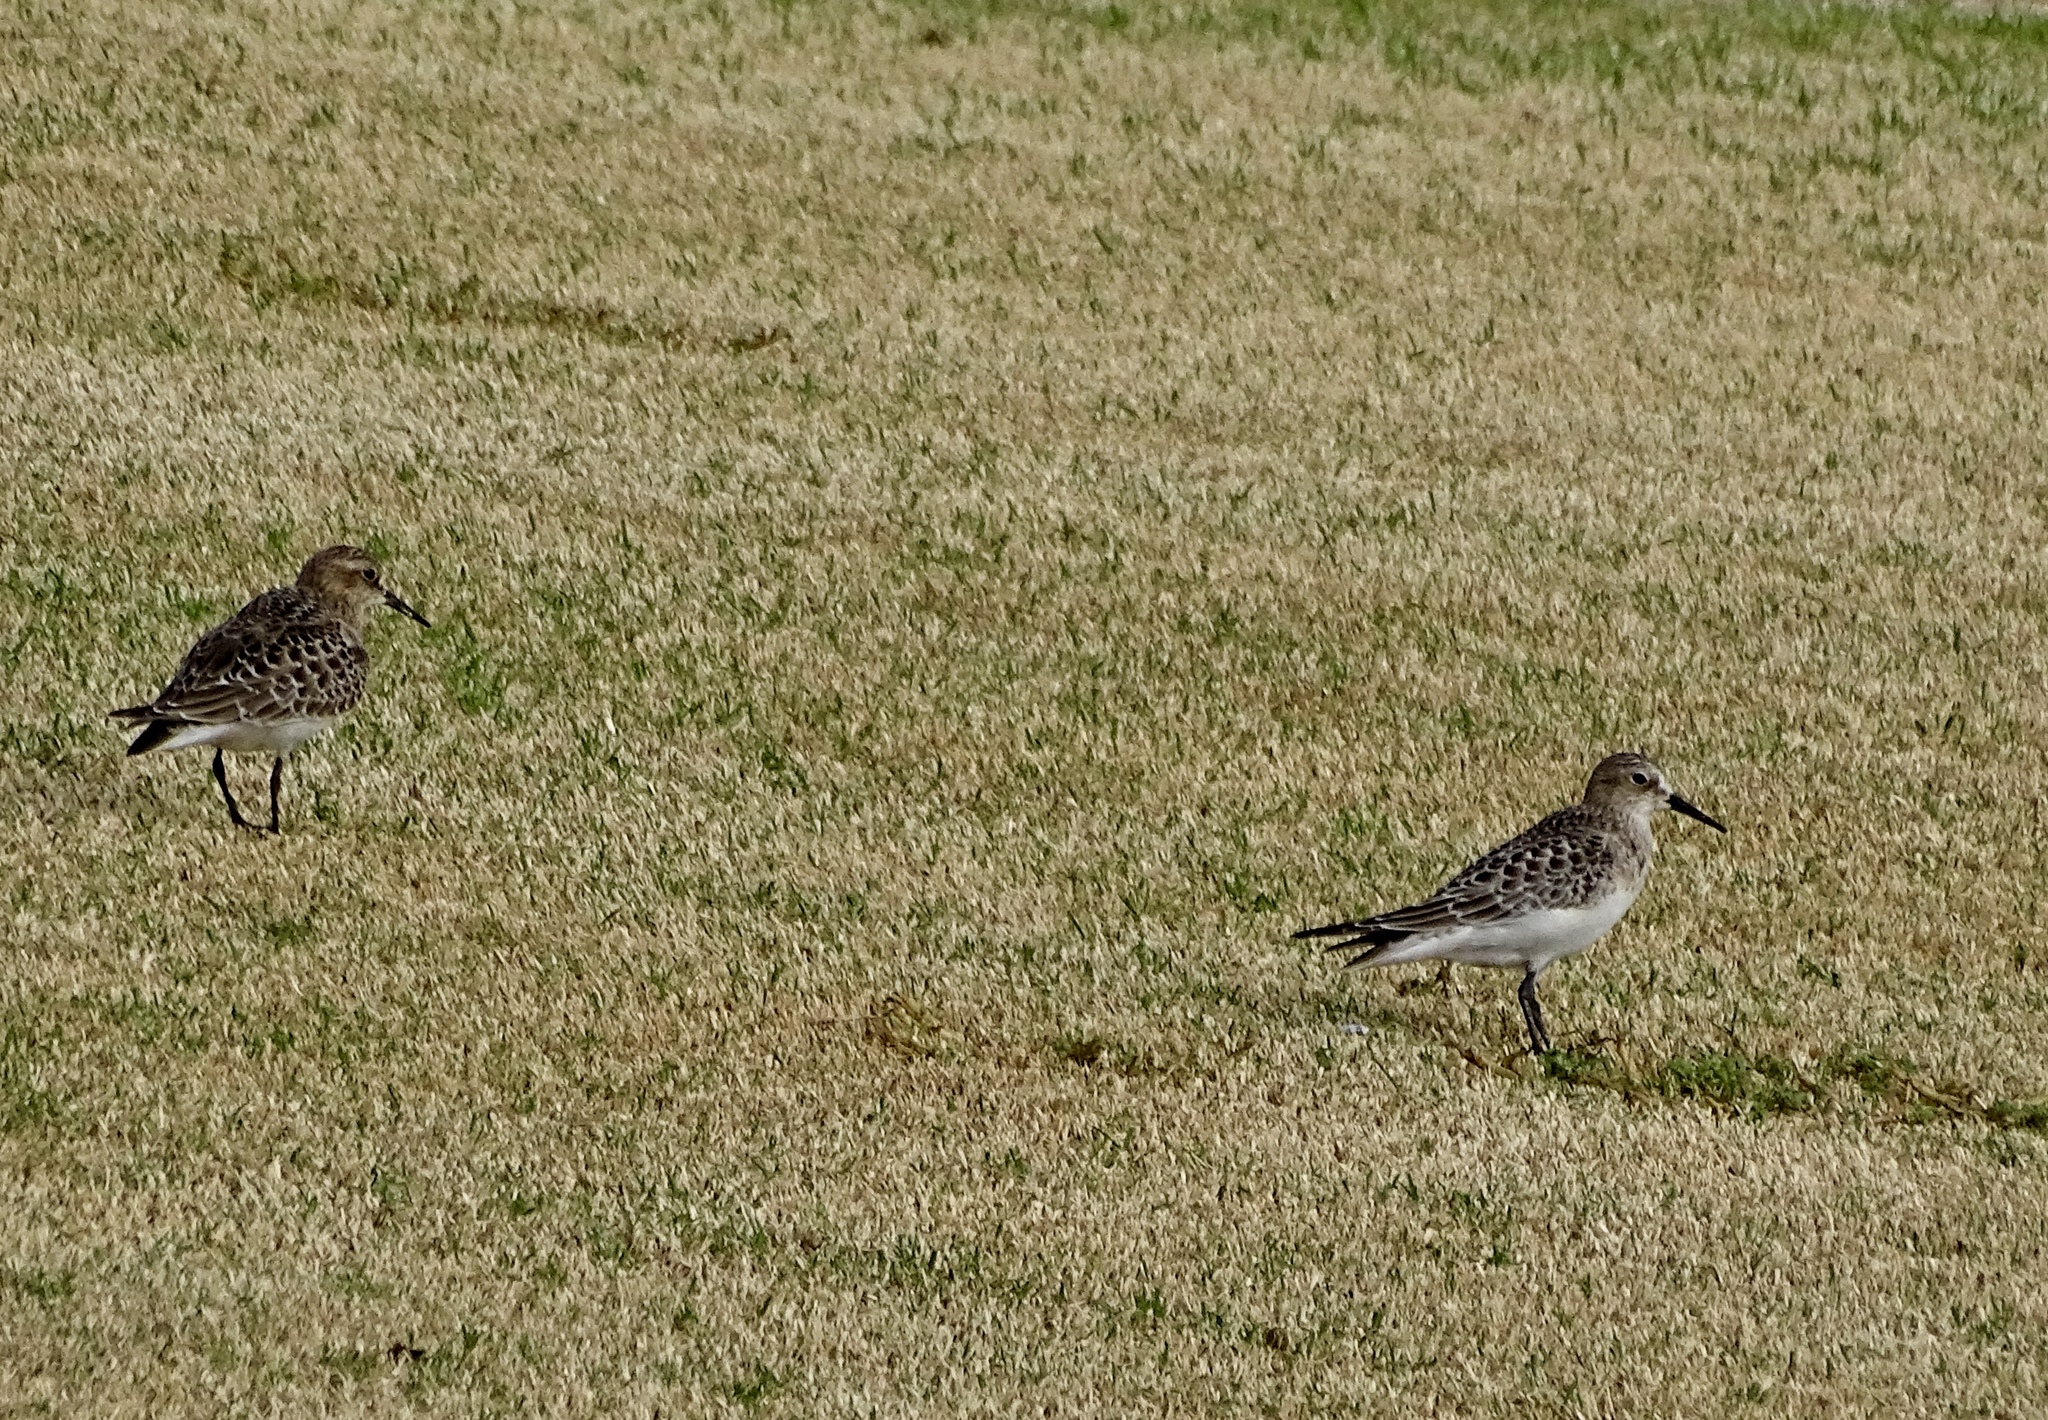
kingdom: Animalia
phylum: Chordata
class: Aves
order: Charadriiformes
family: Scolopacidae
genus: Calidris
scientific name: Calidris bairdii
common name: Baird's sandpiper
